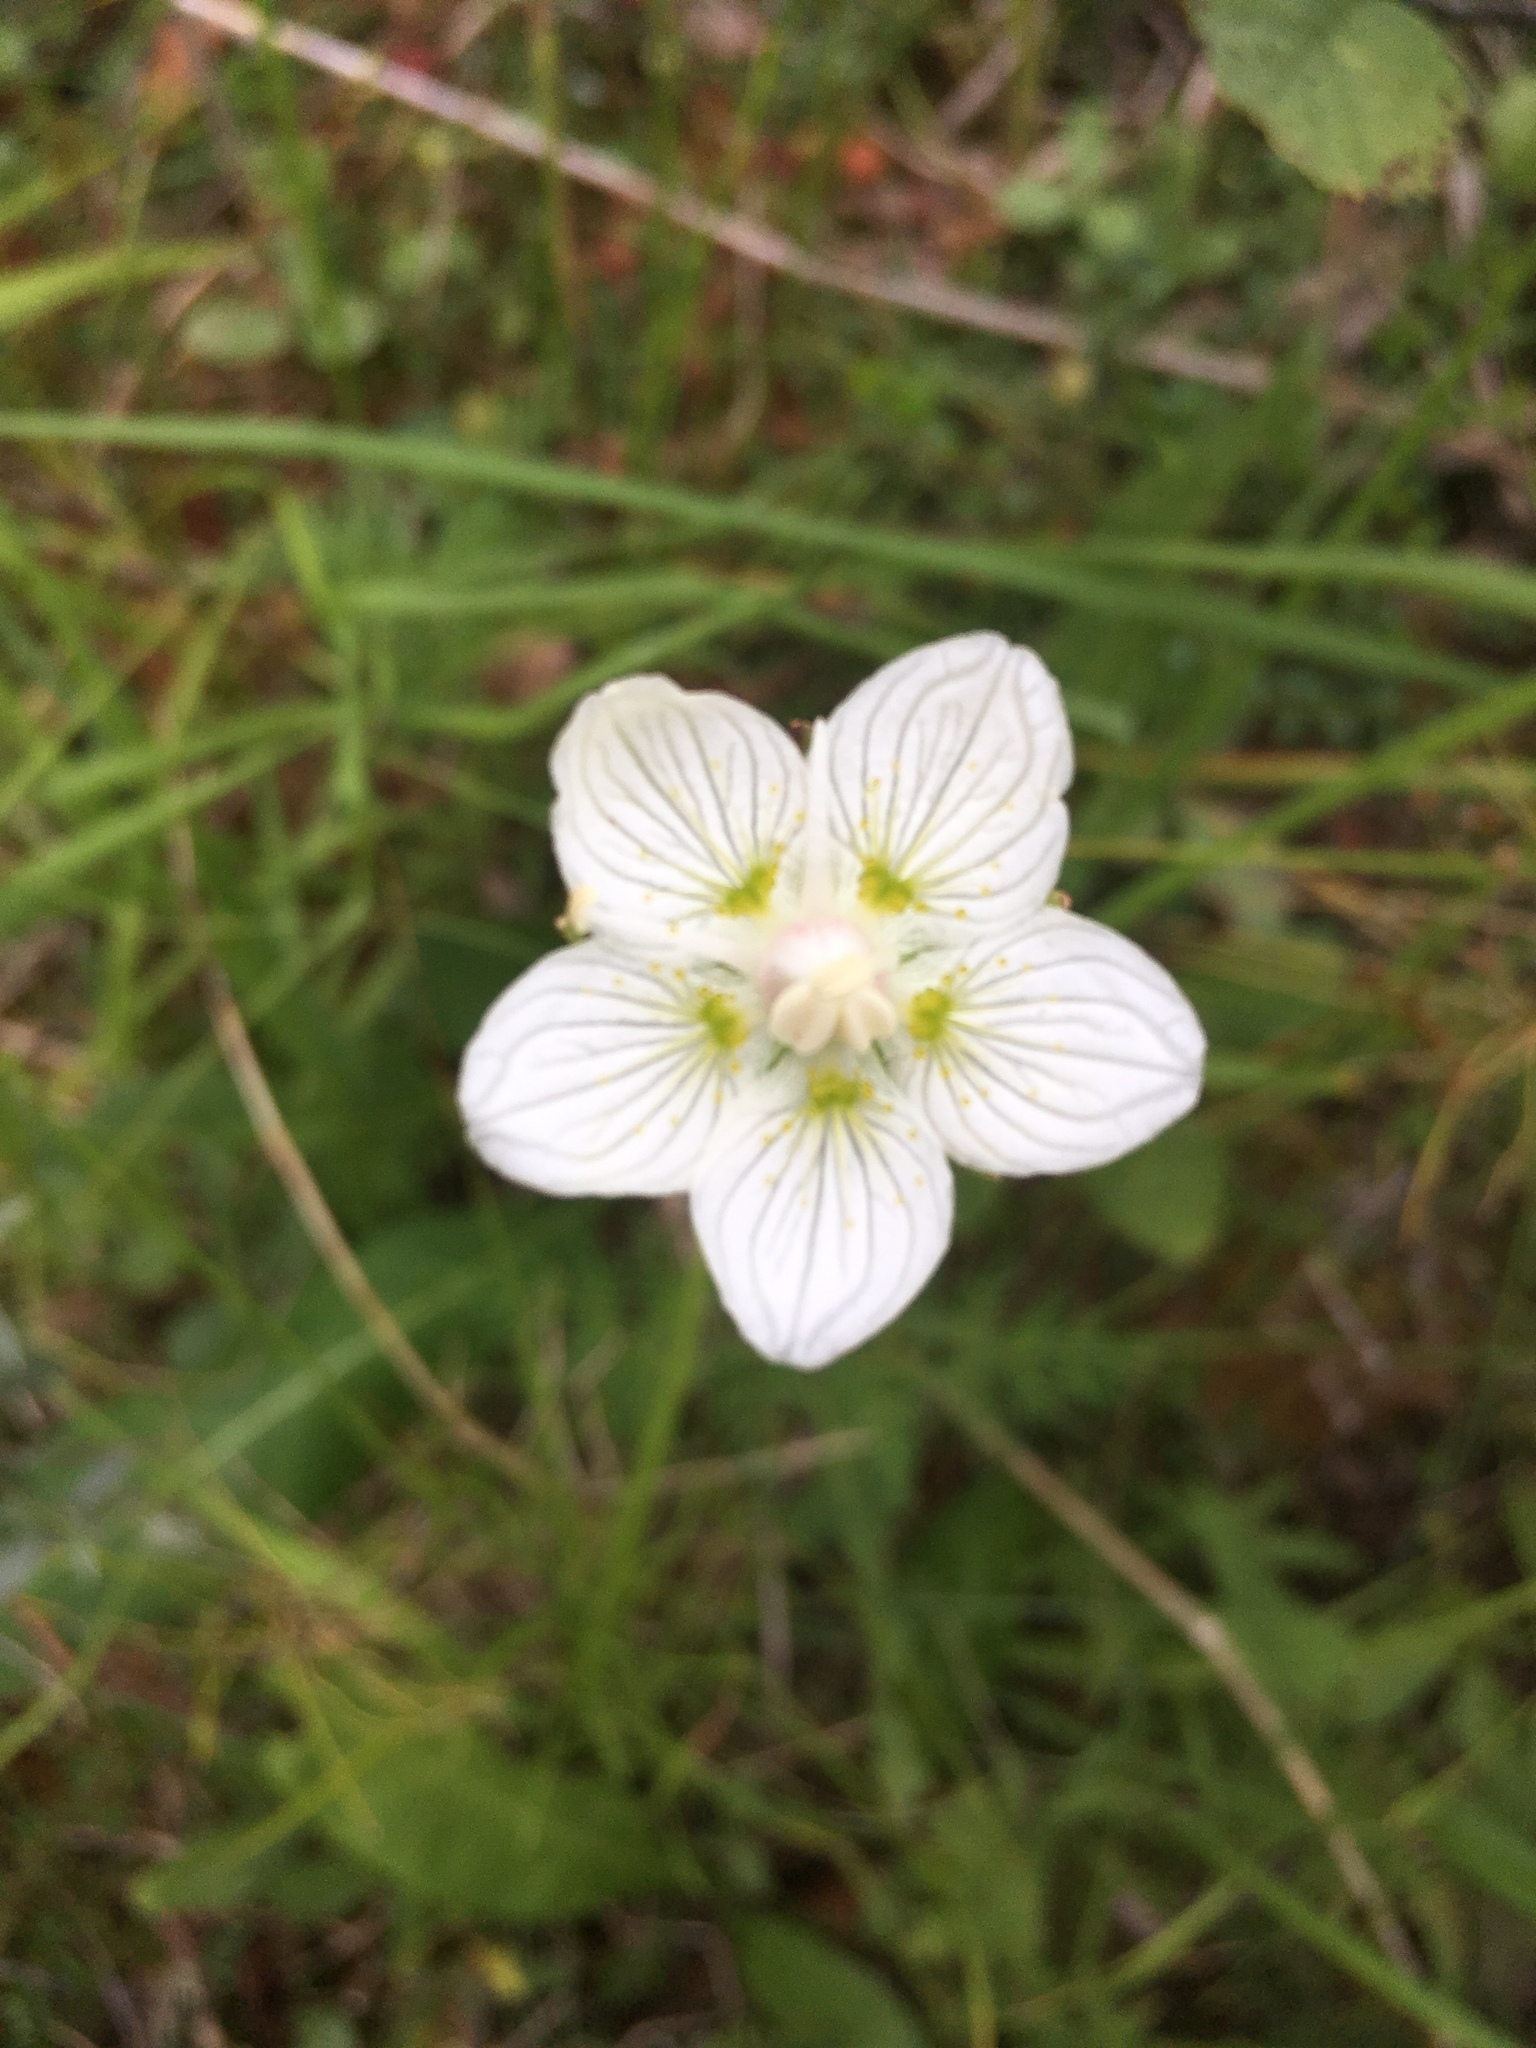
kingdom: Plantae
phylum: Tracheophyta
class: Magnoliopsida
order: Celastrales
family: Parnassiaceae
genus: Parnassia
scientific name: Parnassia palustris
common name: Grass-of-parnassus
